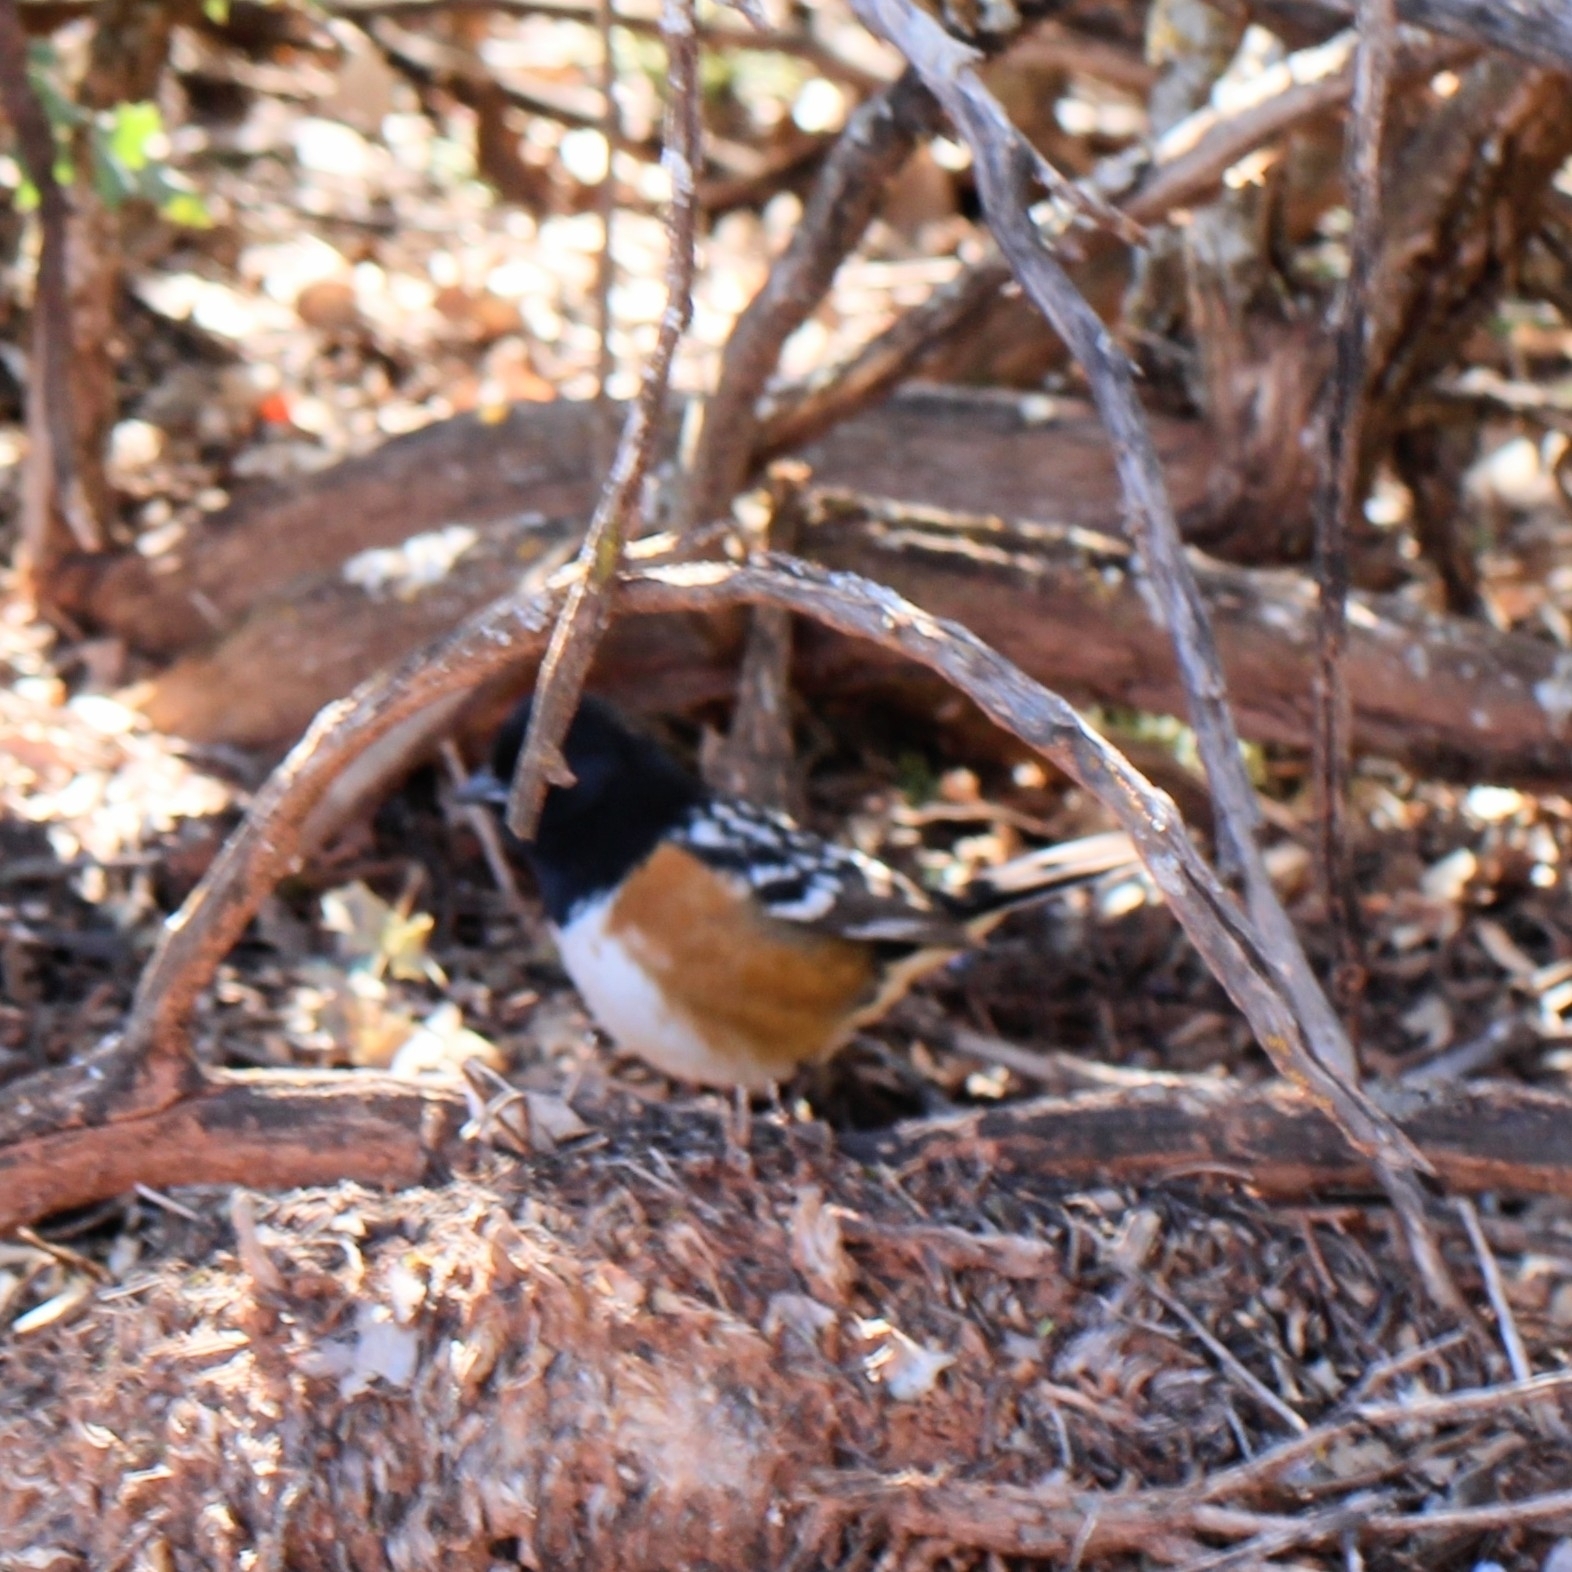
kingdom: Animalia
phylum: Chordata
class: Aves
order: Passeriformes
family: Passerellidae
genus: Pipilo
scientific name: Pipilo maculatus
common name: Spotted towhee
